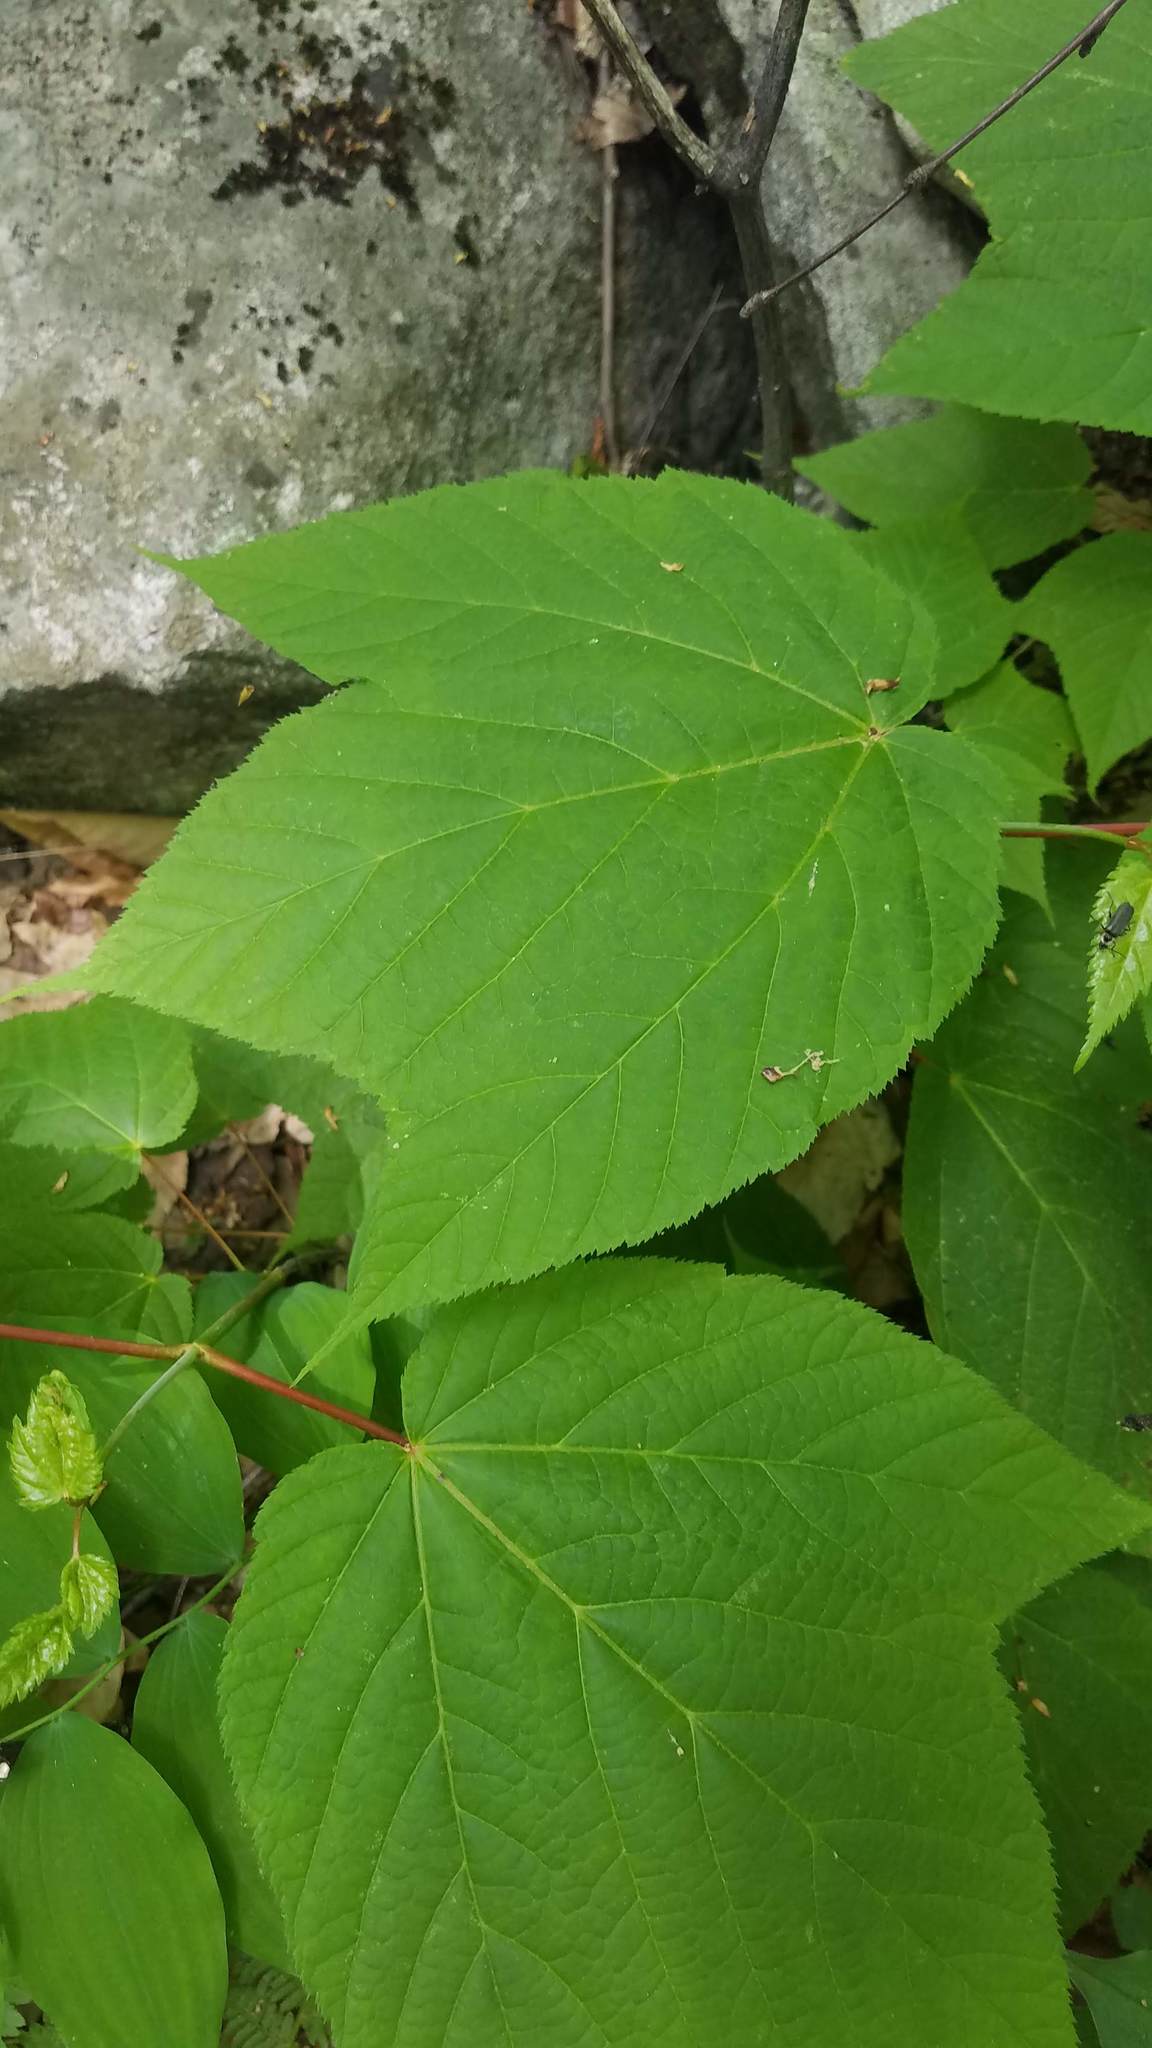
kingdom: Plantae
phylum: Tracheophyta
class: Magnoliopsida
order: Sapindales
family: Sapindaceae
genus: Acer
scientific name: Acer pensylvanicum
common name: Moosewood
